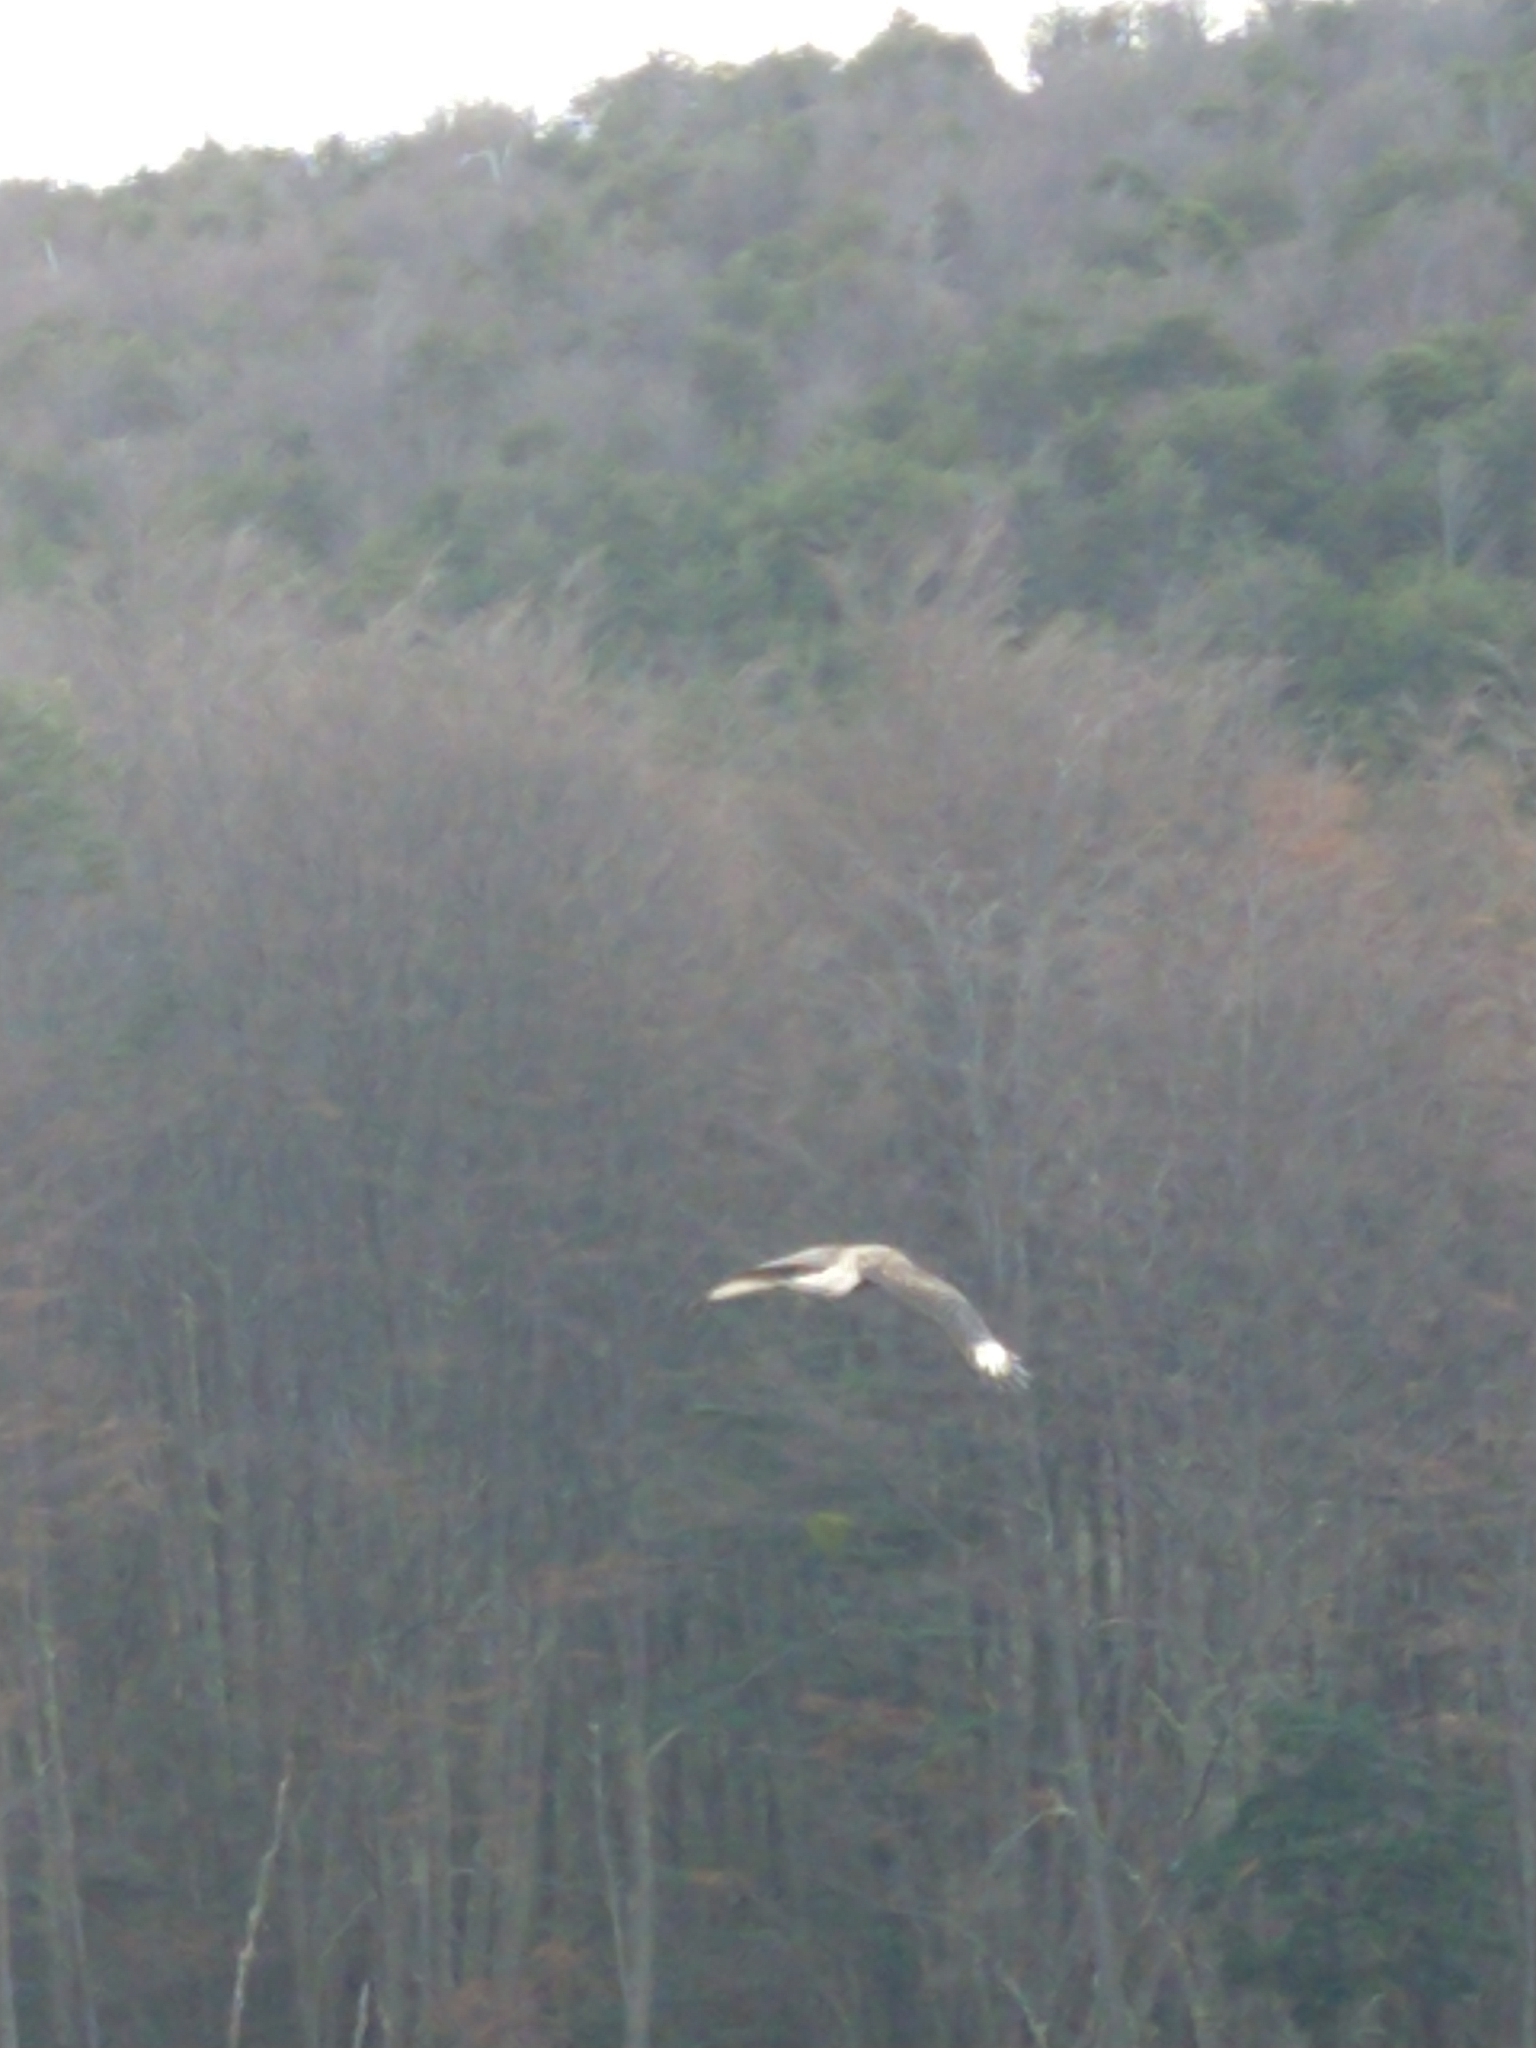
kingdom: Animalia
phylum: Chordata
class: Aves
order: Falconiformes
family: Falconidae
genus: Caracara
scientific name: Caracara plancus
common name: Southern caracara
